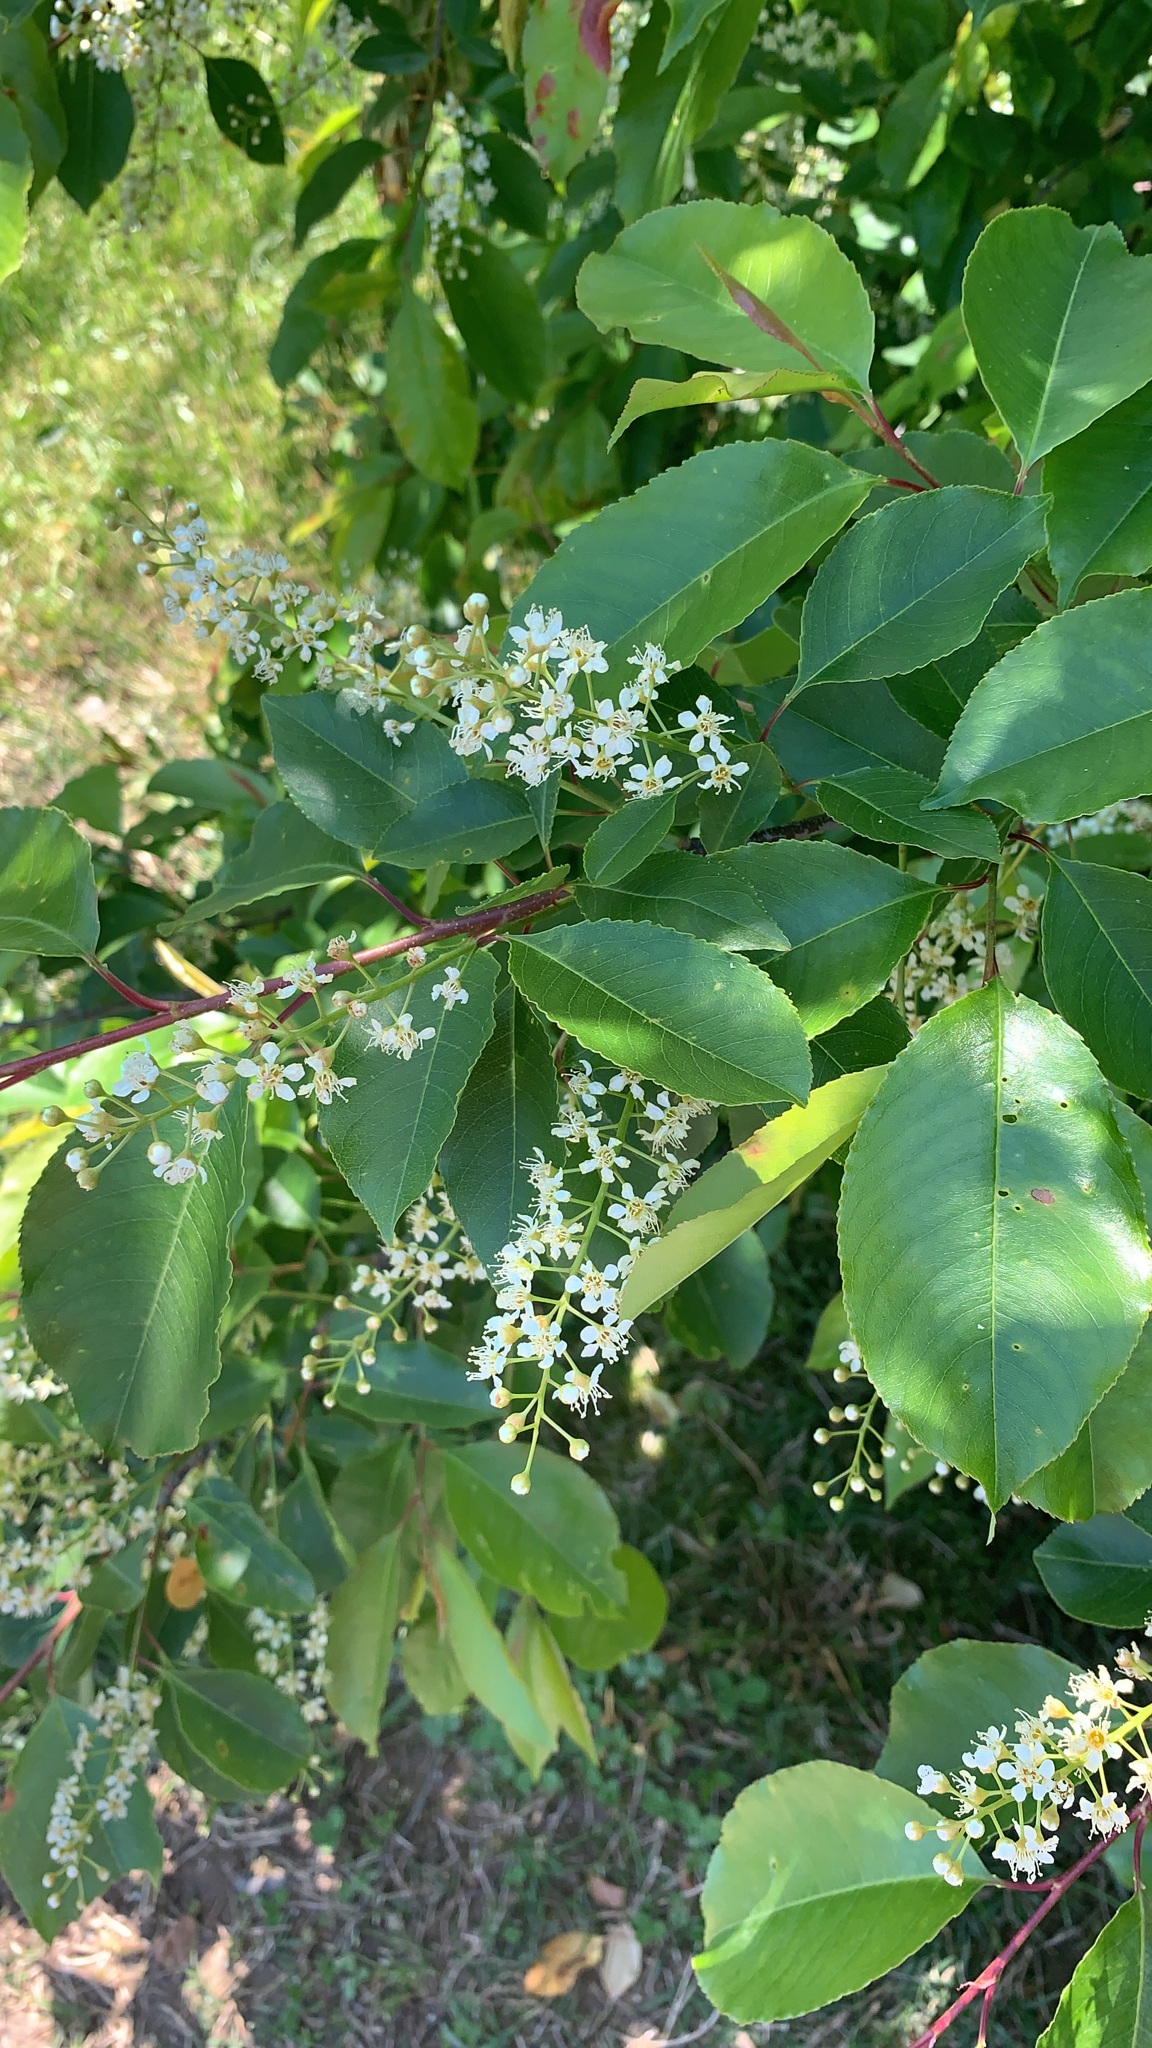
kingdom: Plantae
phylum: Tracheophyta
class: Magnoliopsida
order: Rosales
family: Rosaceae
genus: Prunus
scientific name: Prunus serotina
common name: Black cherry
